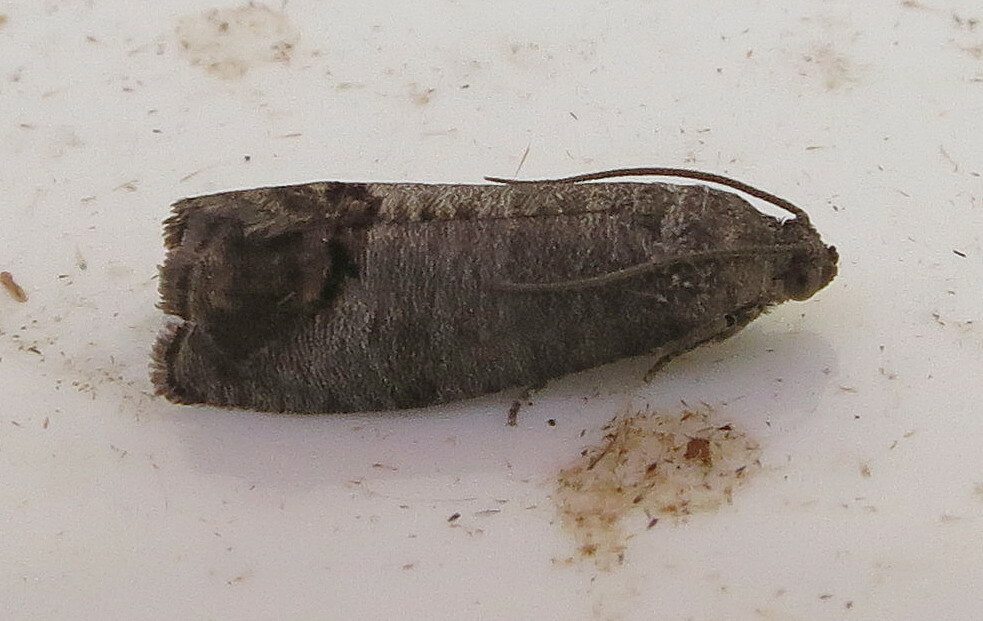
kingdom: Animalia
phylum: Arthropoda
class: Insecta
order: Lepidoptera
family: Tortricidae
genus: Cydia
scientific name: Cydia pomonella
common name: Codling moth
